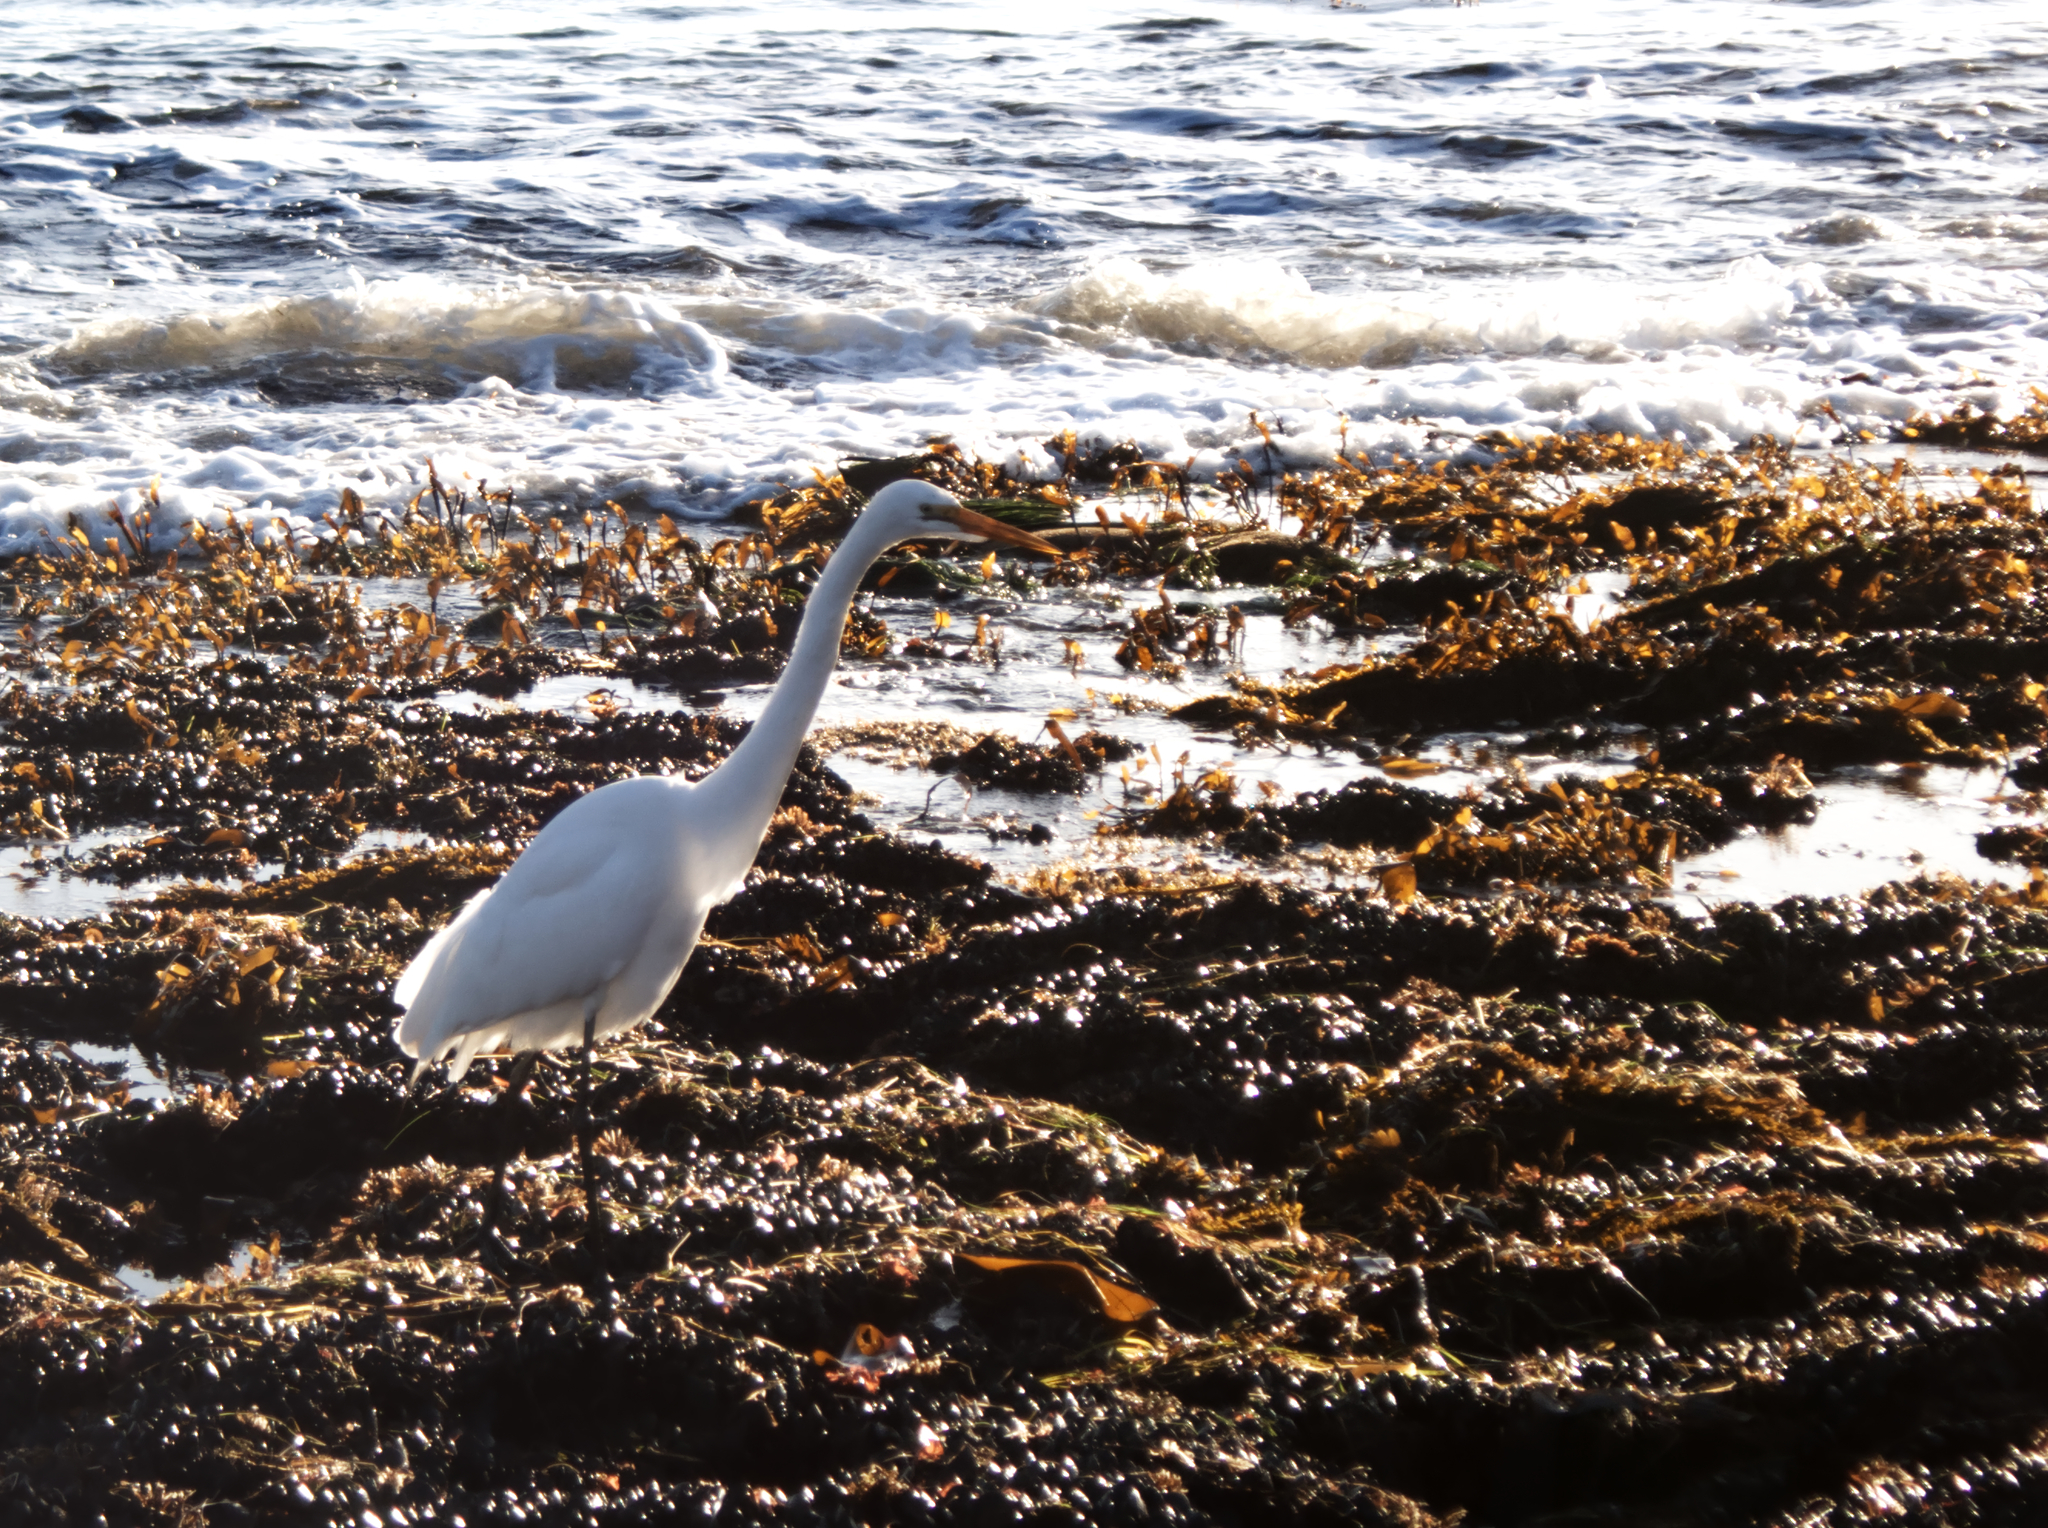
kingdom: Animalia
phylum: Chordata
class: Aves
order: Pelecaniformes
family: Ardeidae
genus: Ardea
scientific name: Ardea alba
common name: Great egret
